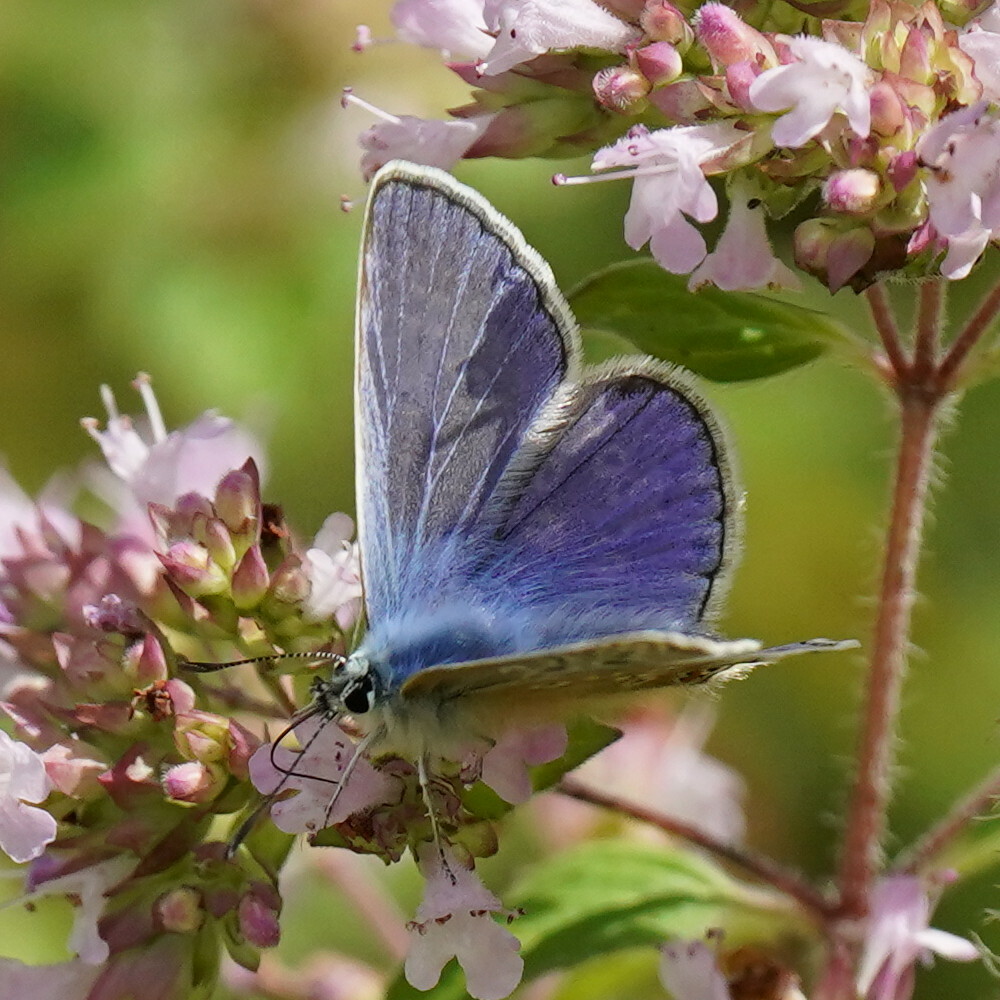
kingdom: Animalia
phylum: Arthropoda
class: Insecta
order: Lepidoptera
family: Lycaenidae
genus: Polyommatus
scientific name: Polyommatus icarus
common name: Common blue
